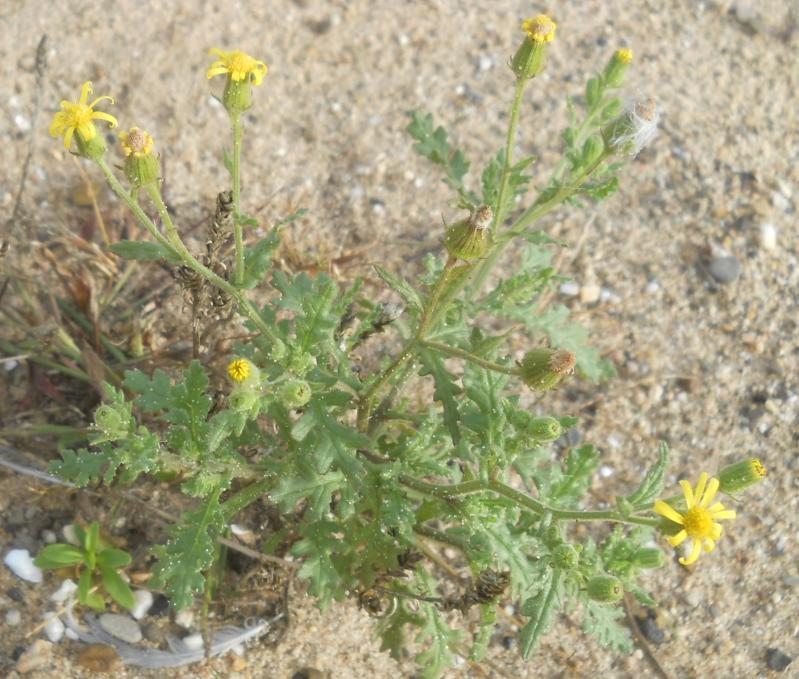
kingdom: Plantae
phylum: Tracheophyta
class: Magnoliopsida
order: Asterales
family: Asteraceae
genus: Senecio
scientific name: Senecio viscosus
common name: Sticky groundsel
